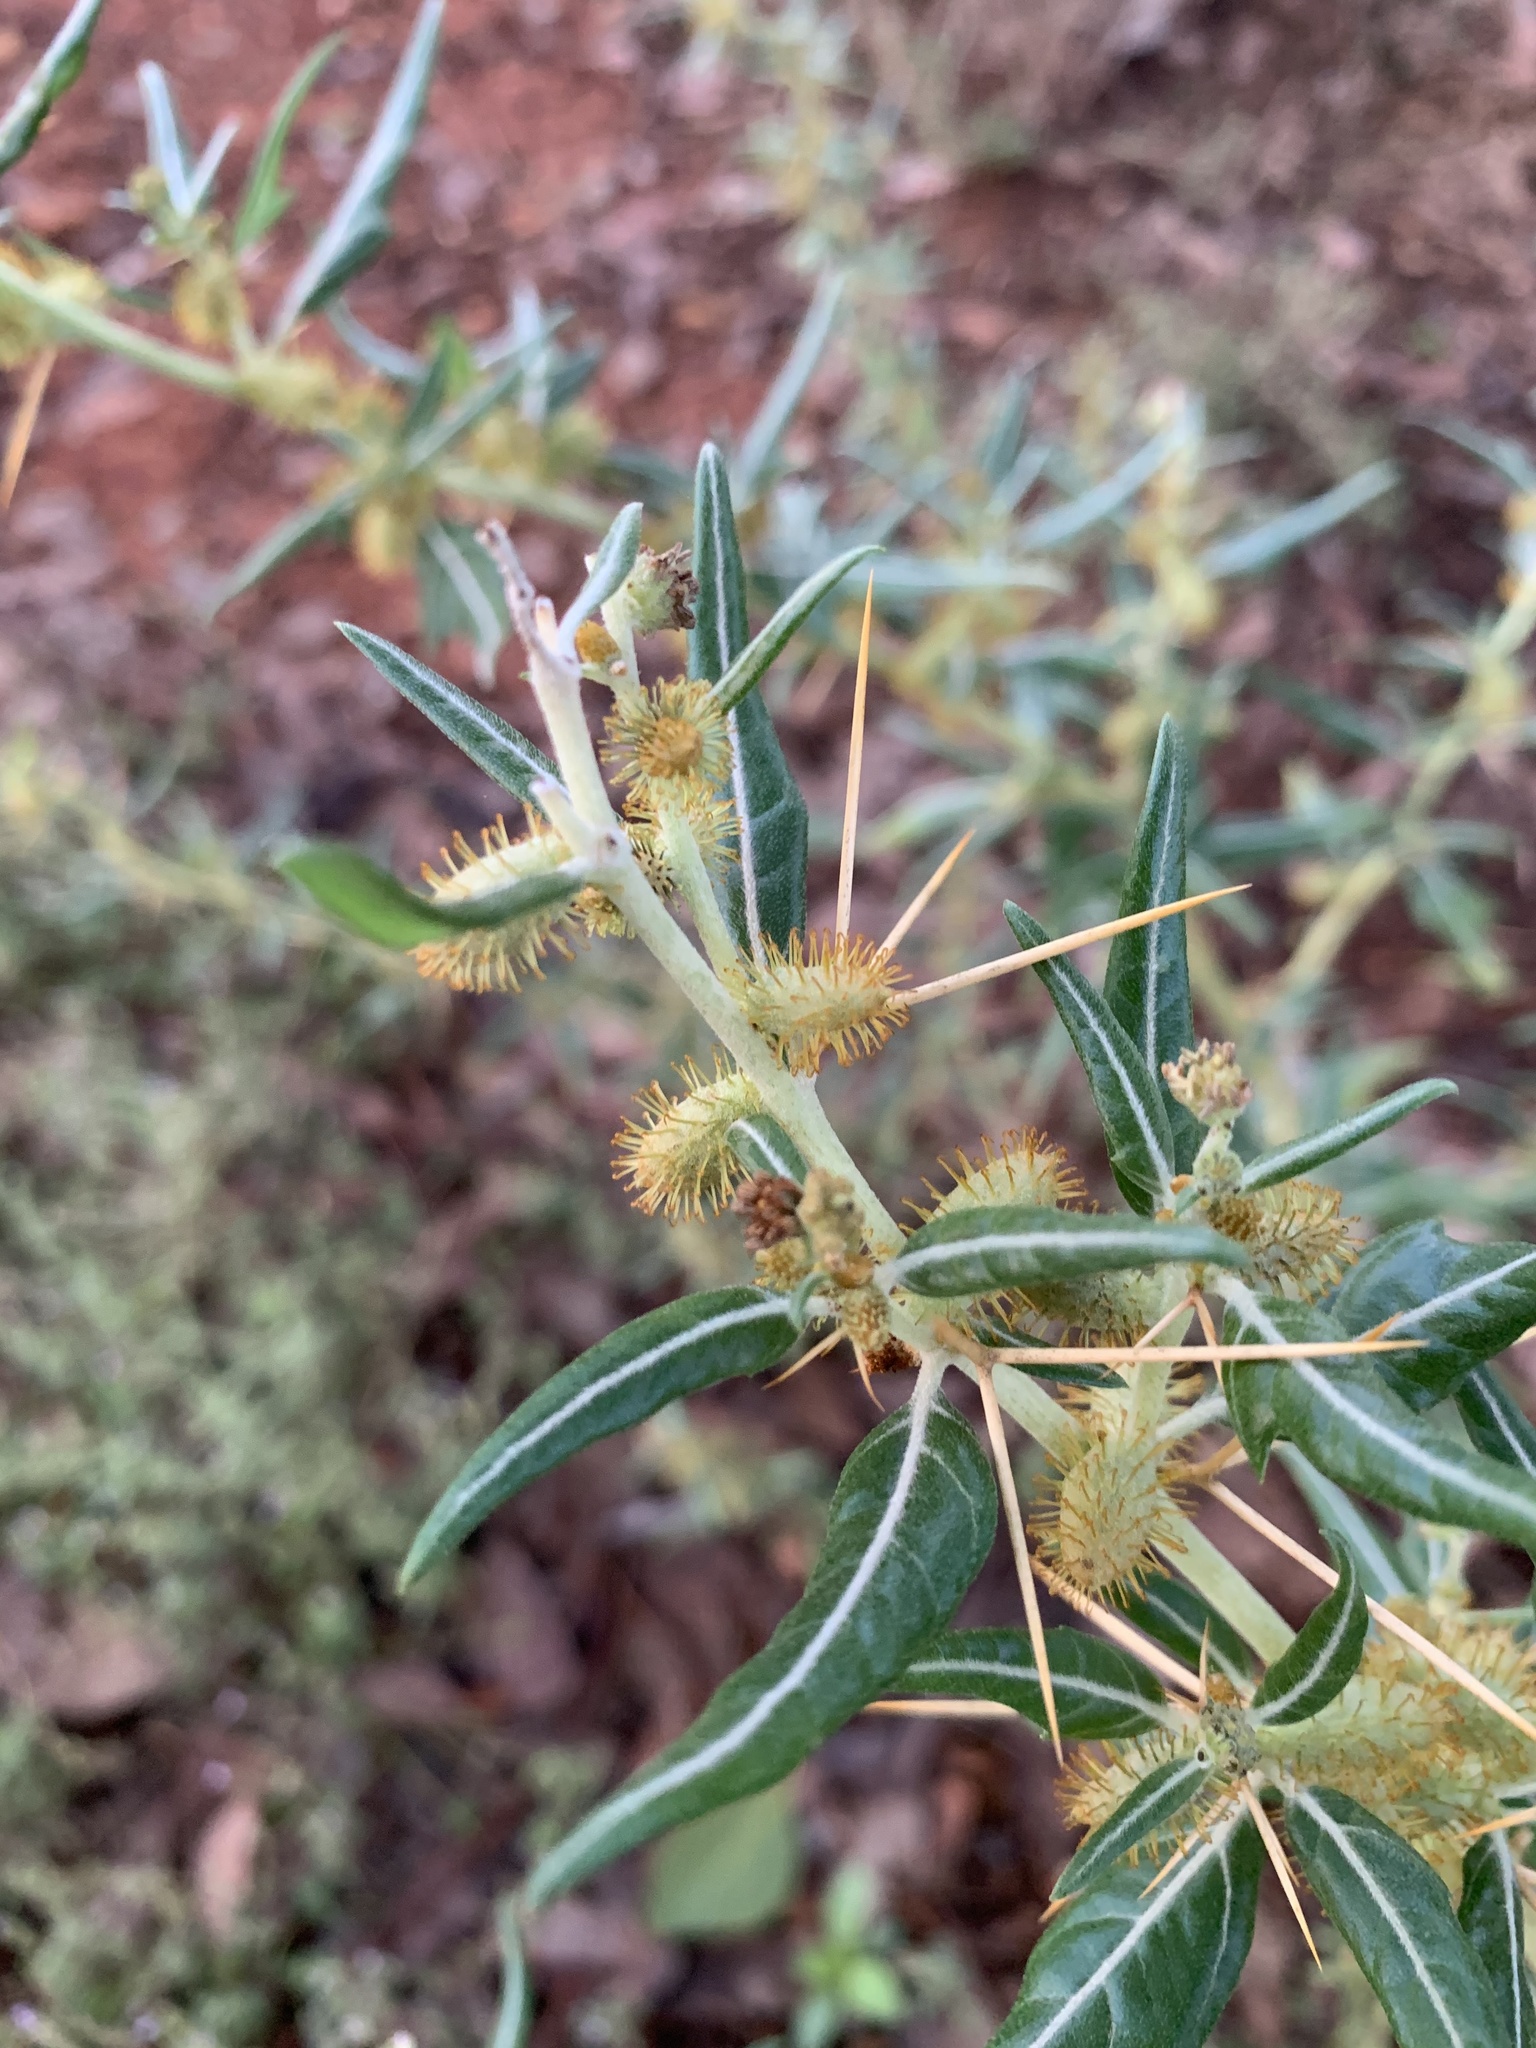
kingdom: Plantae
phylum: Tracheophyta
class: Magnoliopsida
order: Asterales
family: Asteraceae
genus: Xanthium
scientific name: Xanthium spinosum
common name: Spiny cocklebur
